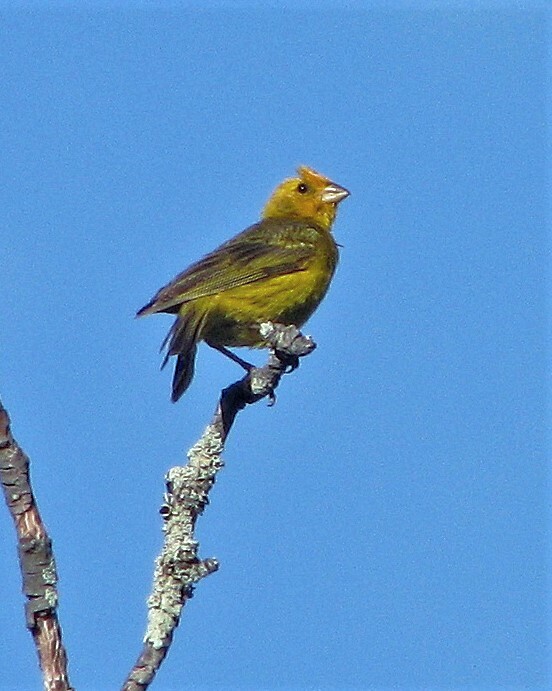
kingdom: Animalia
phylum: Chordata
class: Aves
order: Passeriformes
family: Thraupidae
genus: Sicalis
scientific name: Sicalis flaveola
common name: Saffron finch
